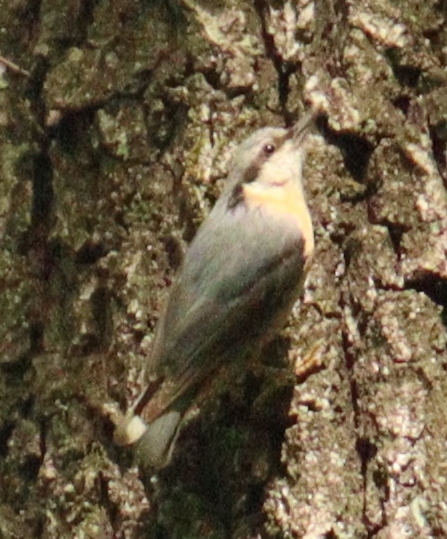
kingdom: Animalia
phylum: Chordata
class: Aves
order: Passeriformes
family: Sittidae
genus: Sitta
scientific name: Sitta europaea
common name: Eurasian nuthatch
